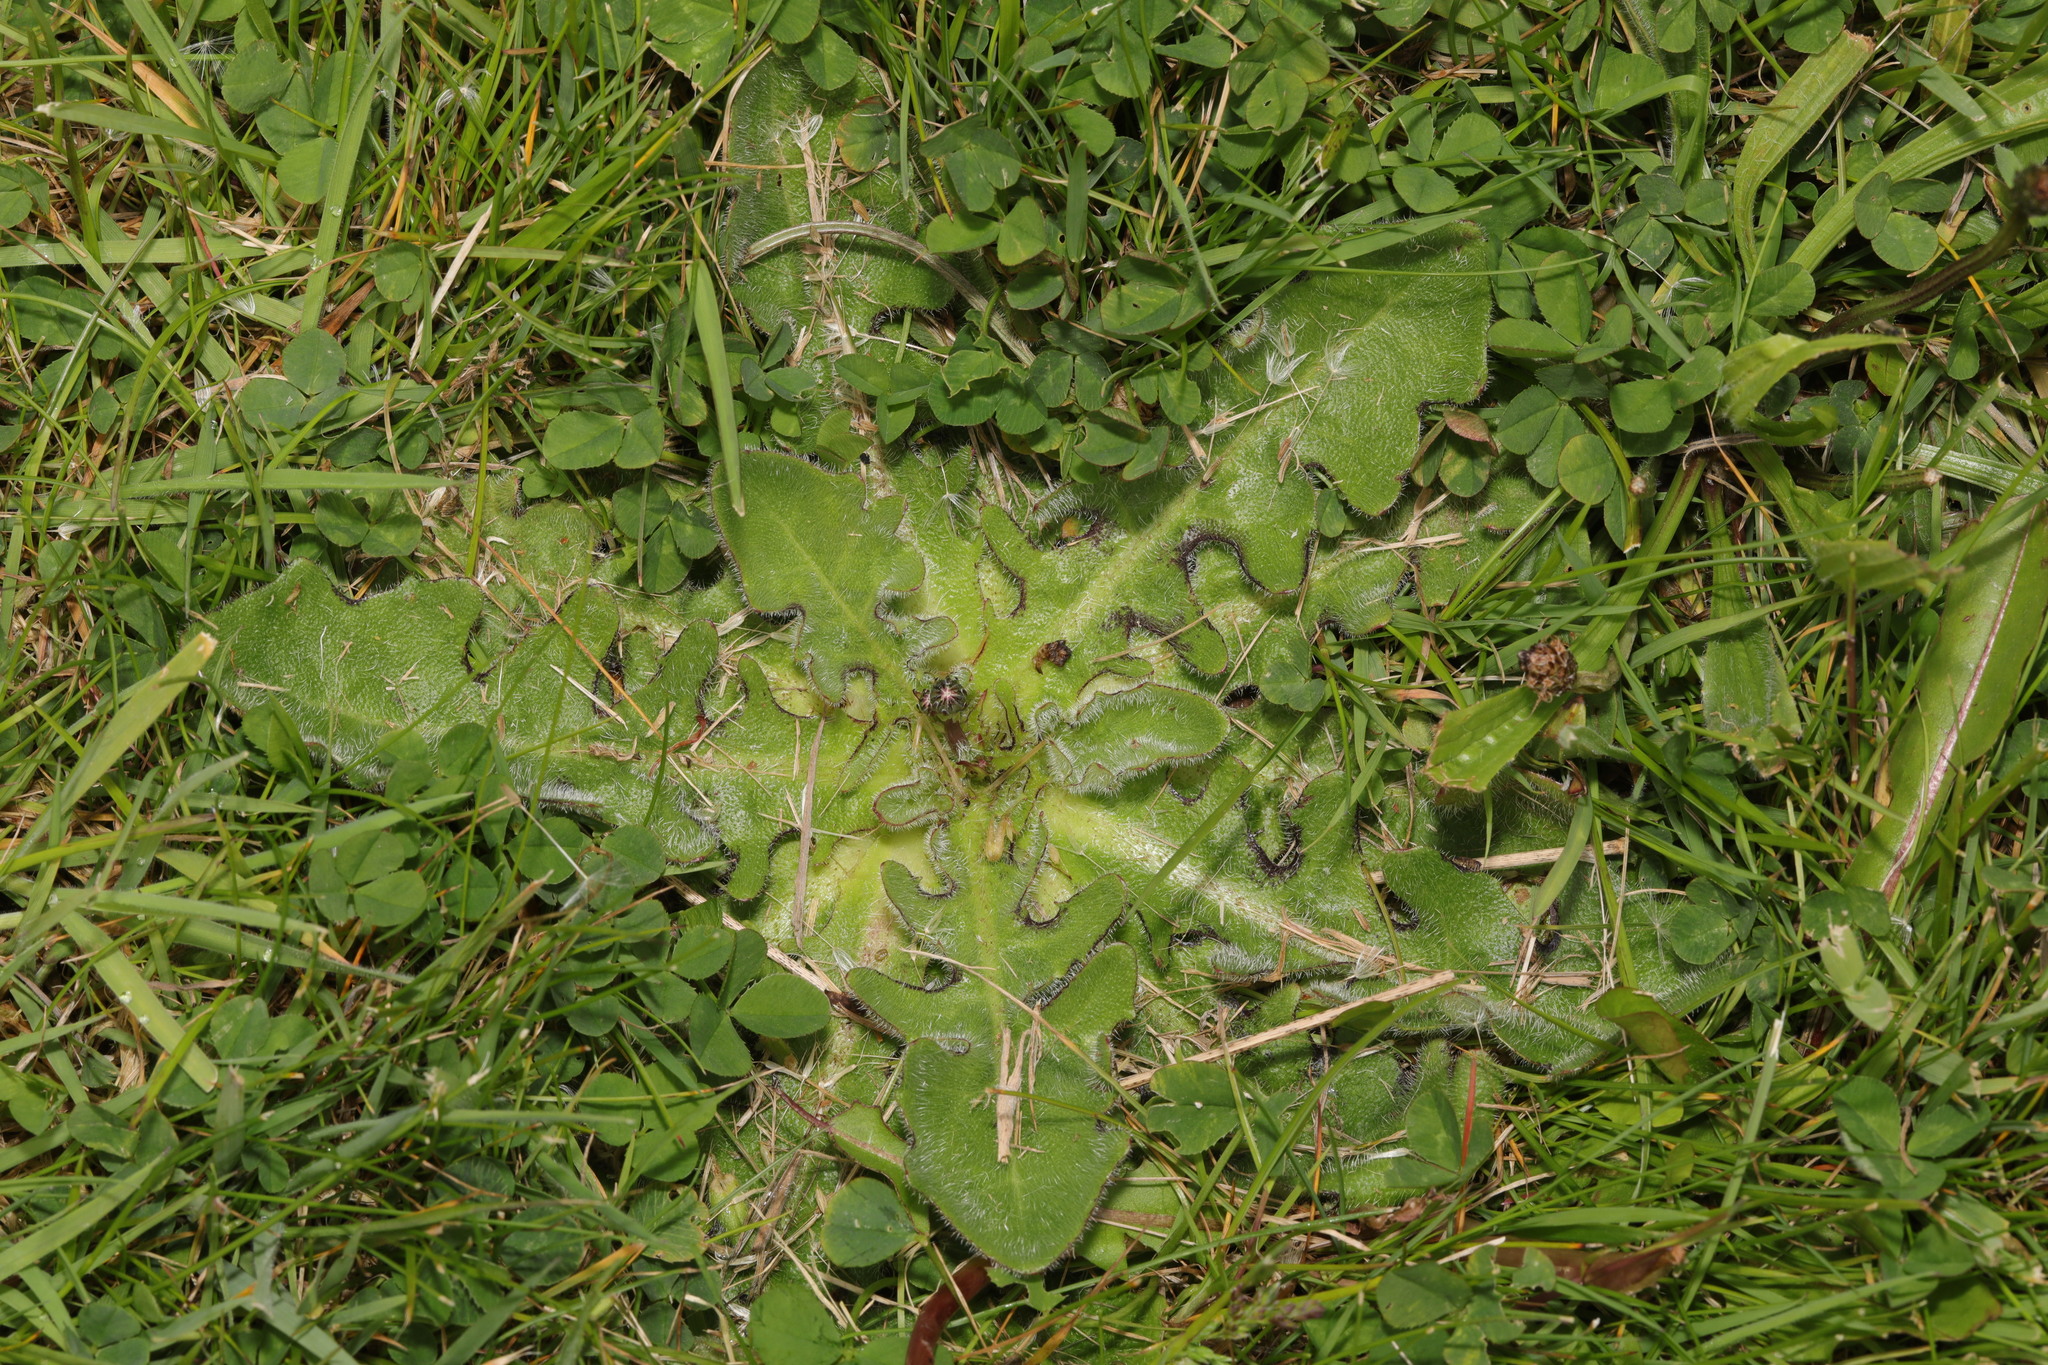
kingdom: Plantae
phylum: Tracheophyta
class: Magnoliopsida
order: Asterales
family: Asteraceae
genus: Hypochaeris
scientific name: Hypochaeris radicata
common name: Flatweed
